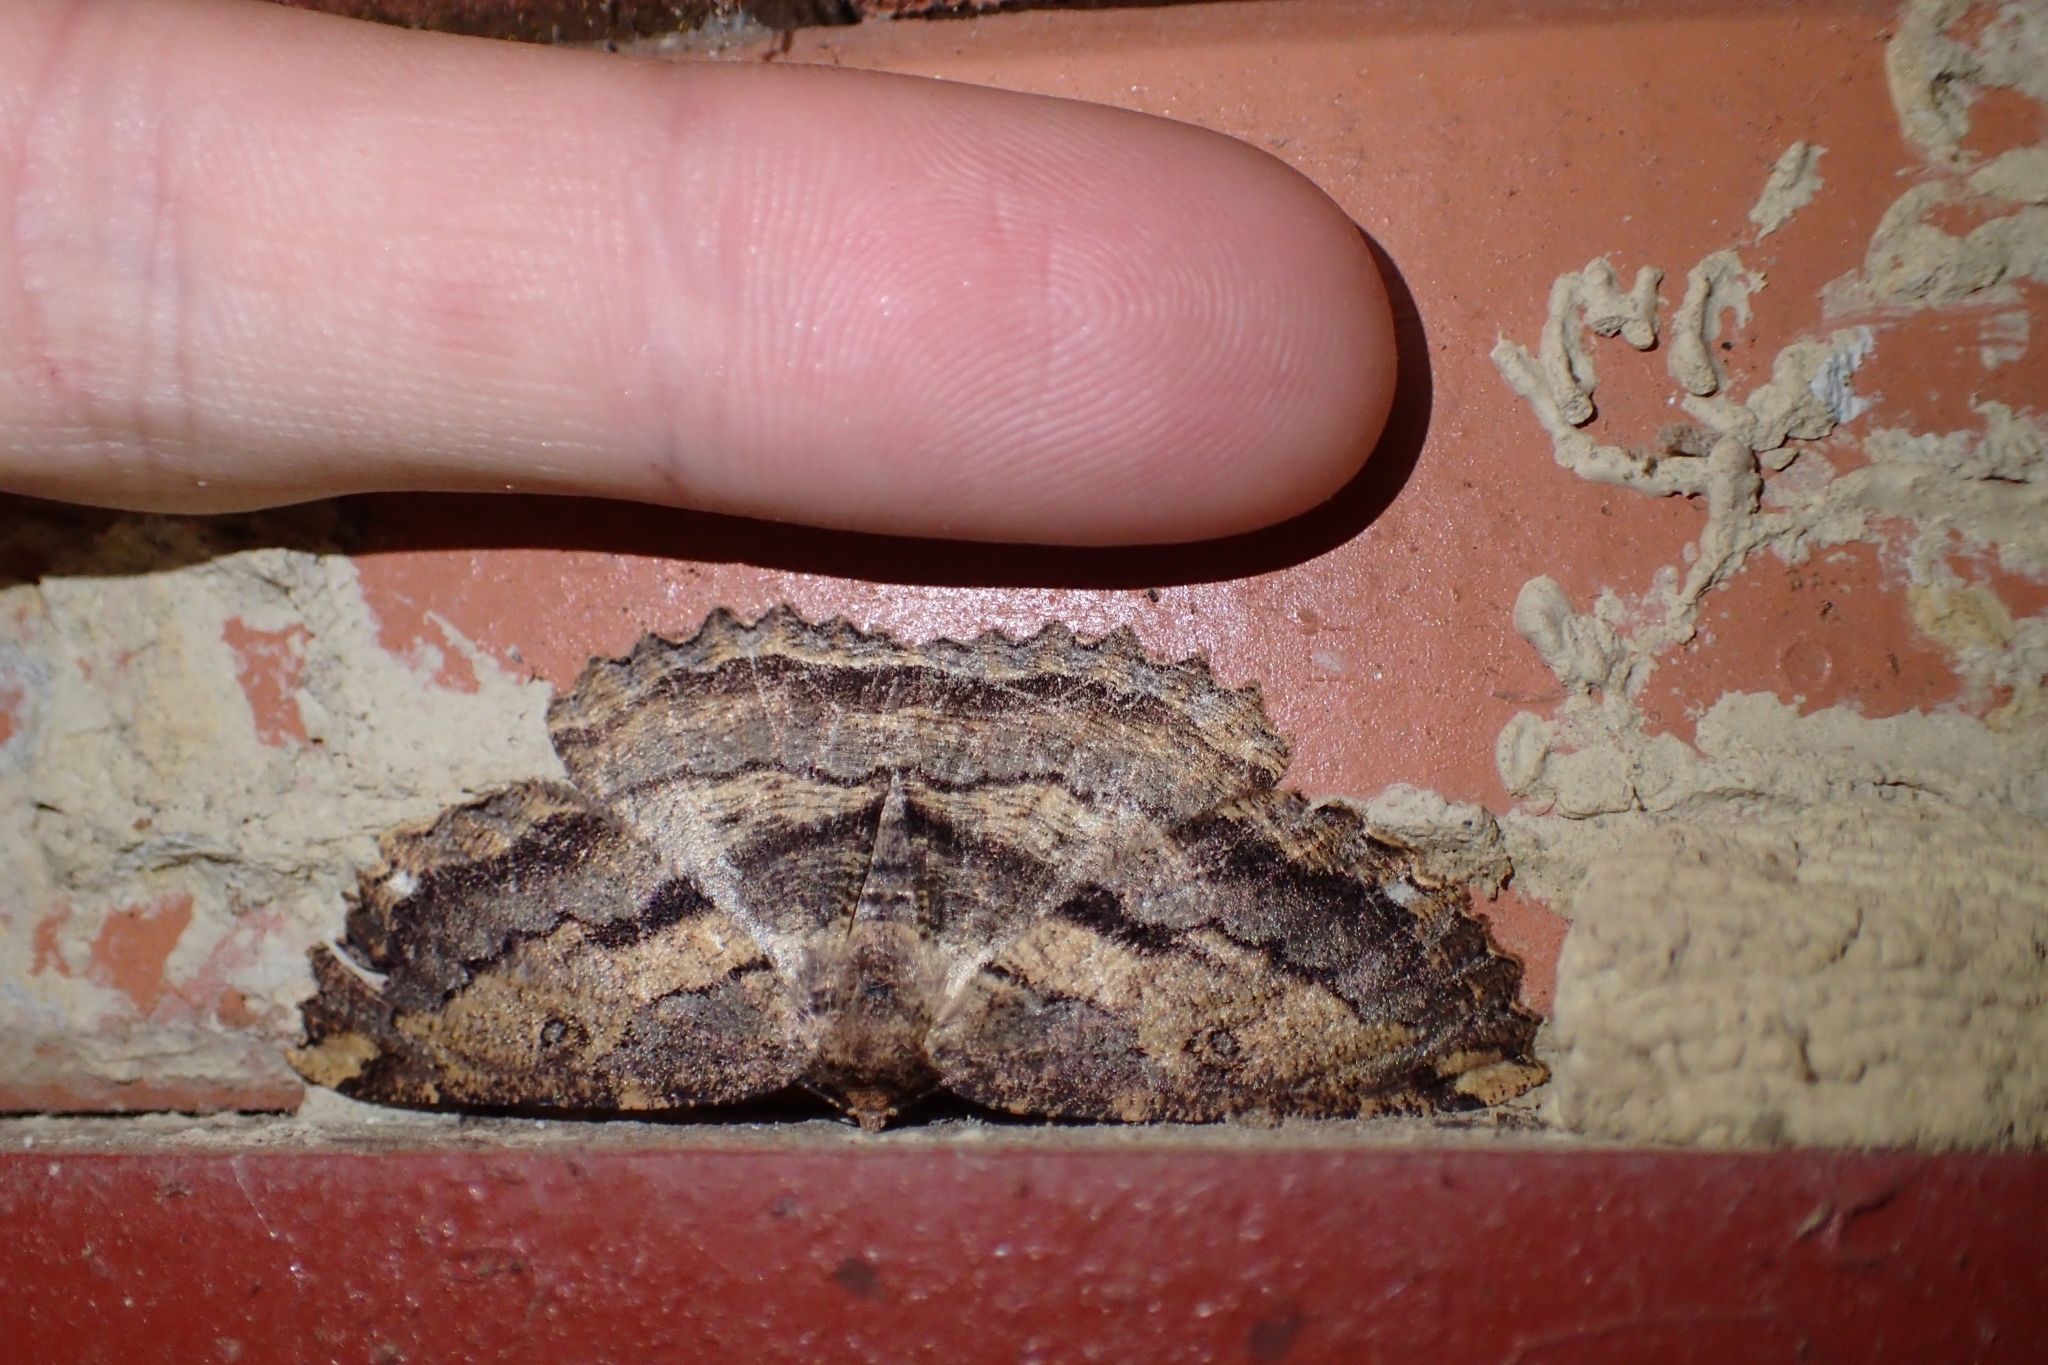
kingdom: Animalia
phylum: Arthropoda
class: Insecta
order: Lepidoptera
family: Geometridae
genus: Gellonia
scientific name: Gellonia dejectaria
